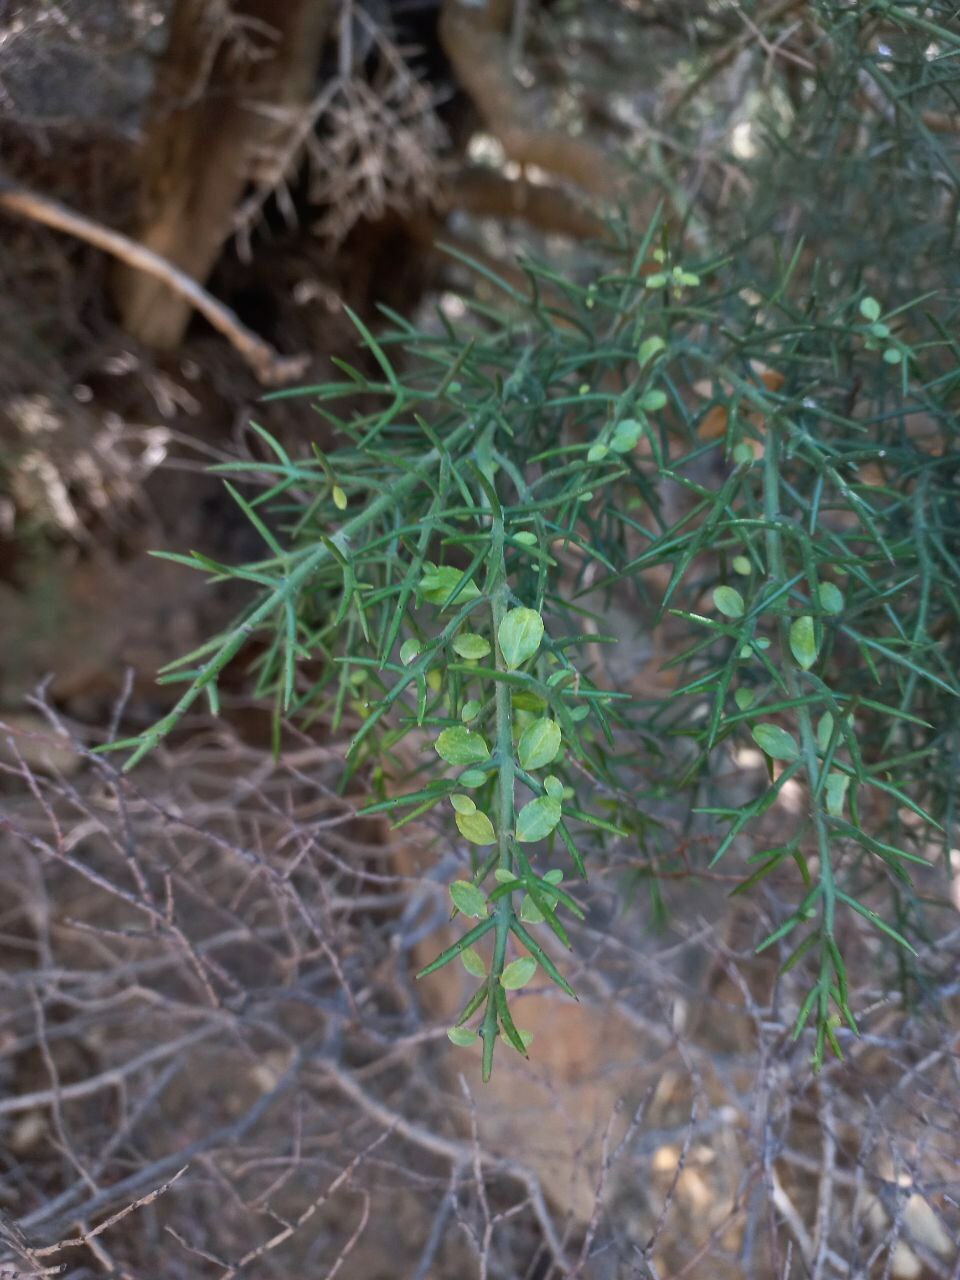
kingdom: Plantae
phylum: Tracheophyta
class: Magnoliopsida
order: Rosales
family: Rhamnaceae
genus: Colletia
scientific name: Colletia hystrix
